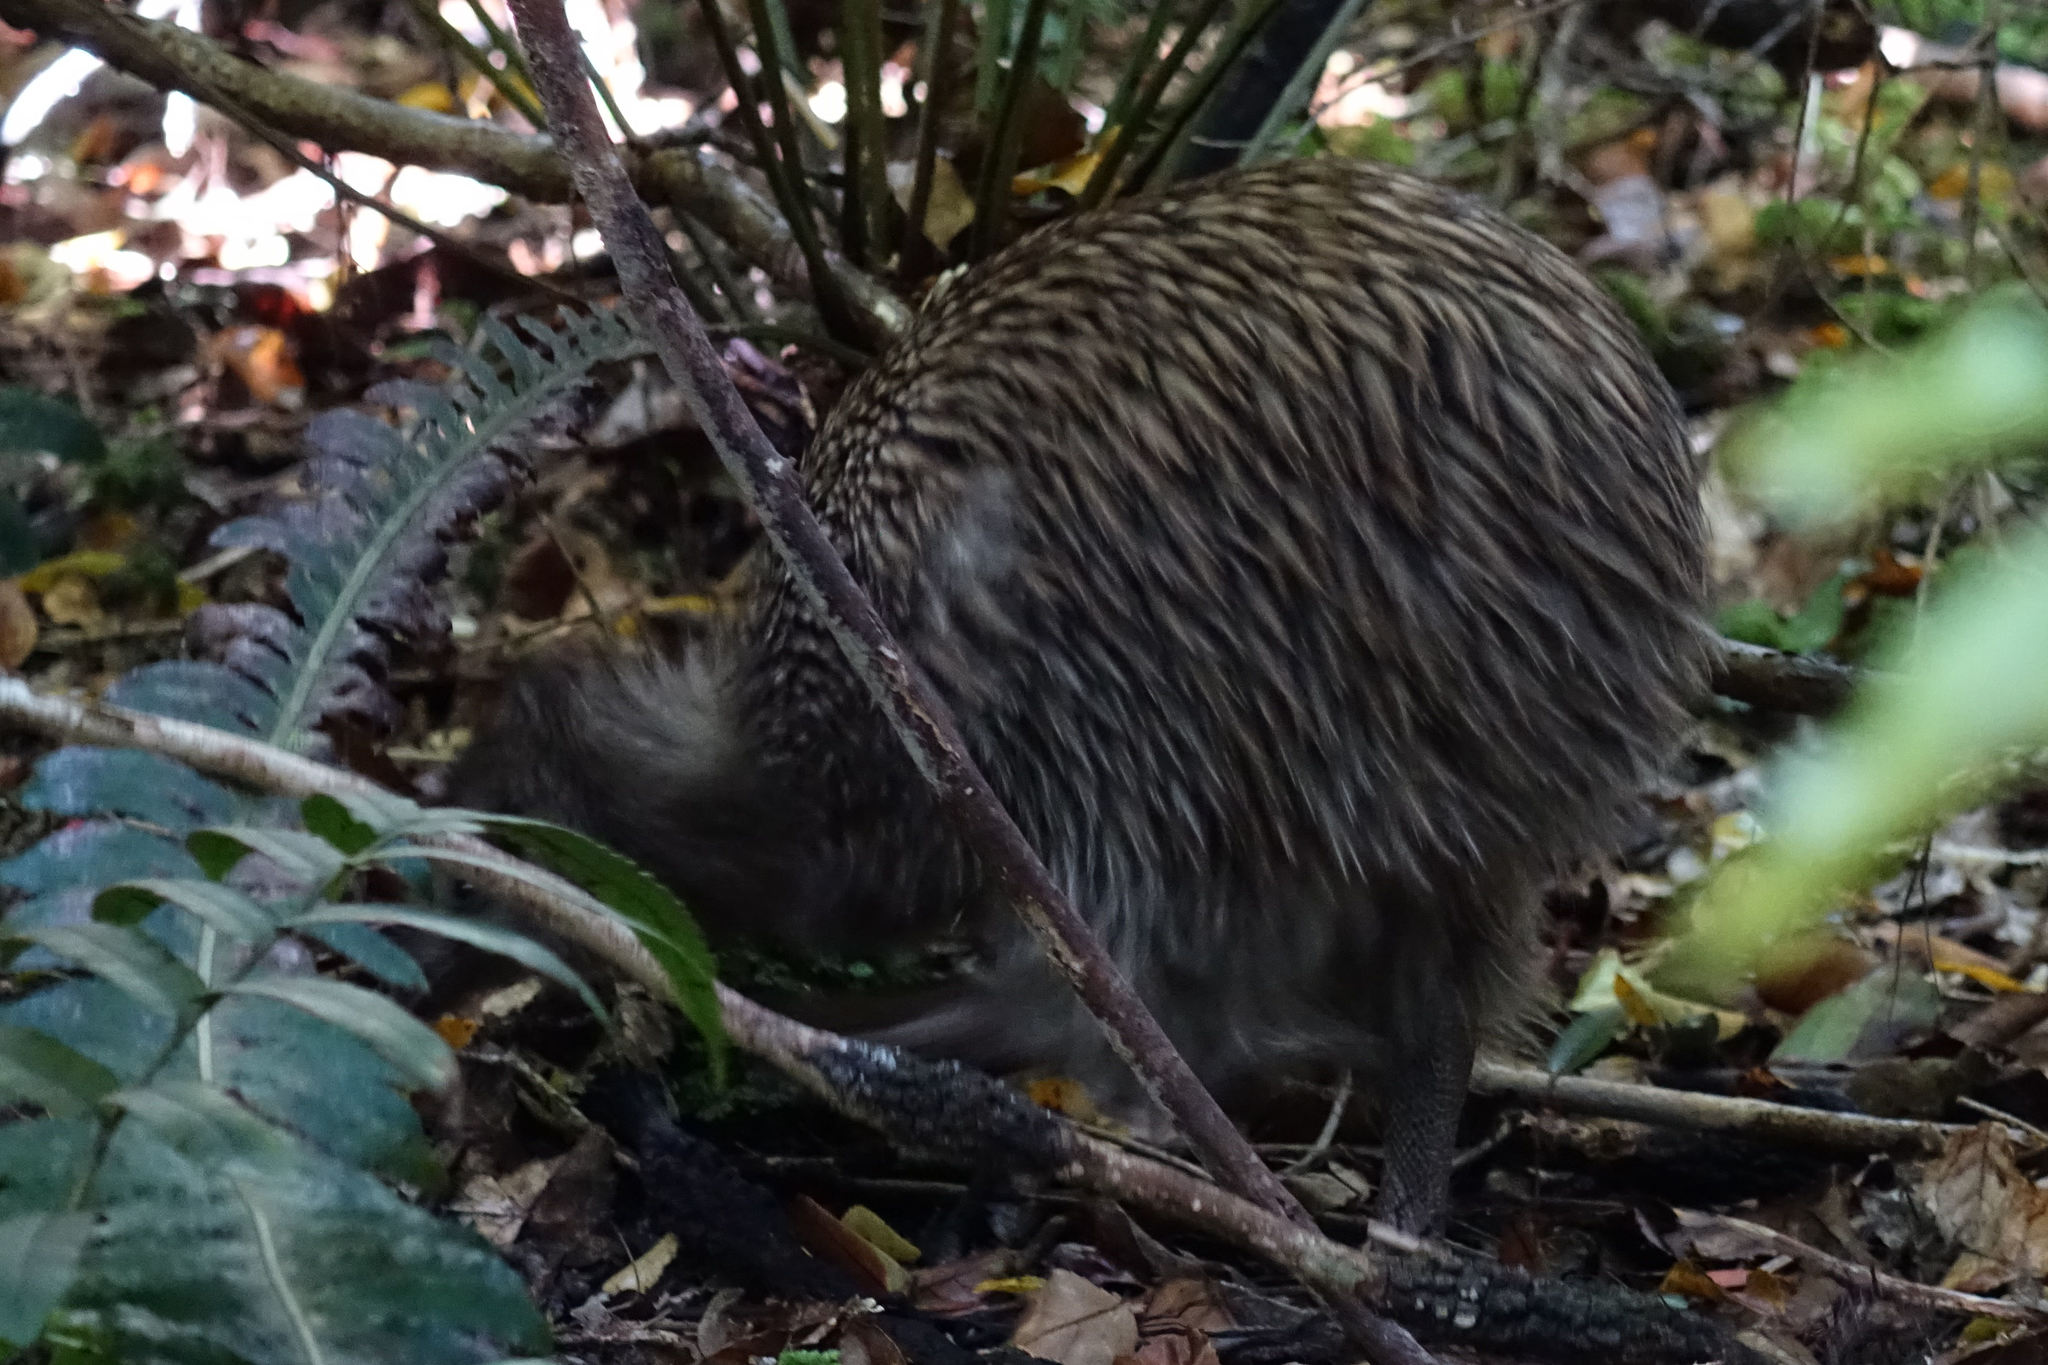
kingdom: Animalia
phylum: Chordata
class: Aves
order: Apterygiformes
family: Apterygidae
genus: Apteryx
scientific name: Apteryx australis
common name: Southern brown kiwi
